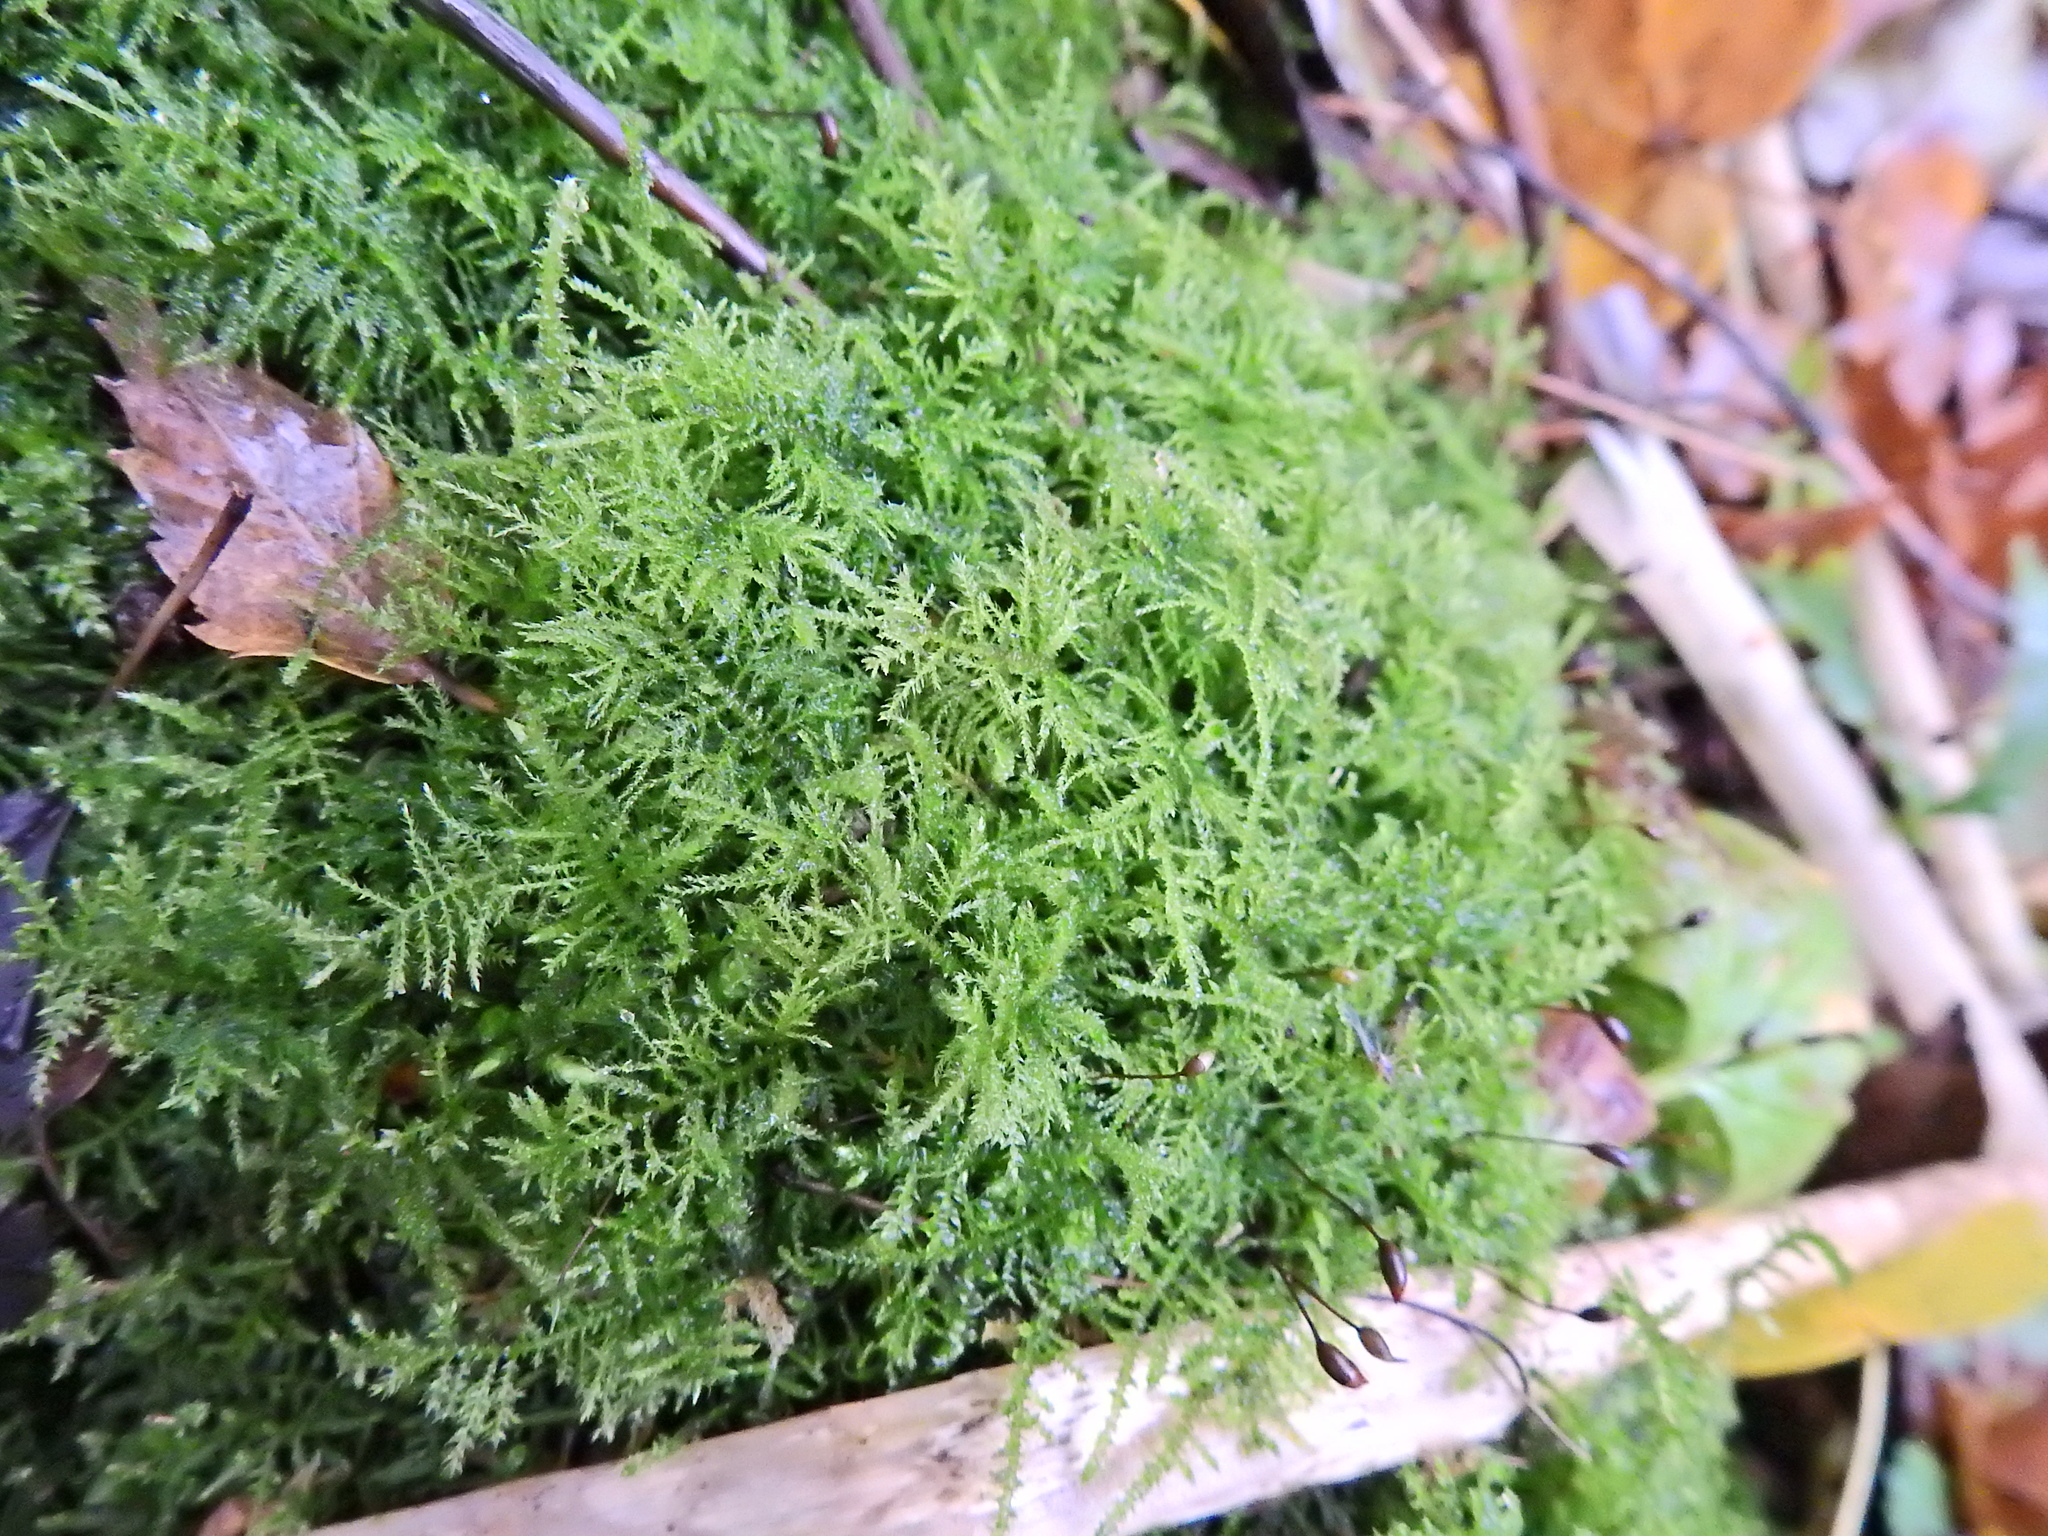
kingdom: Plantae
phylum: Bryophyta
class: Bryopsida
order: Hypnales
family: Brachytheciaceae
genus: Kindbergia
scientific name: Kindbergia praelonga
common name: Slender beaked moss
